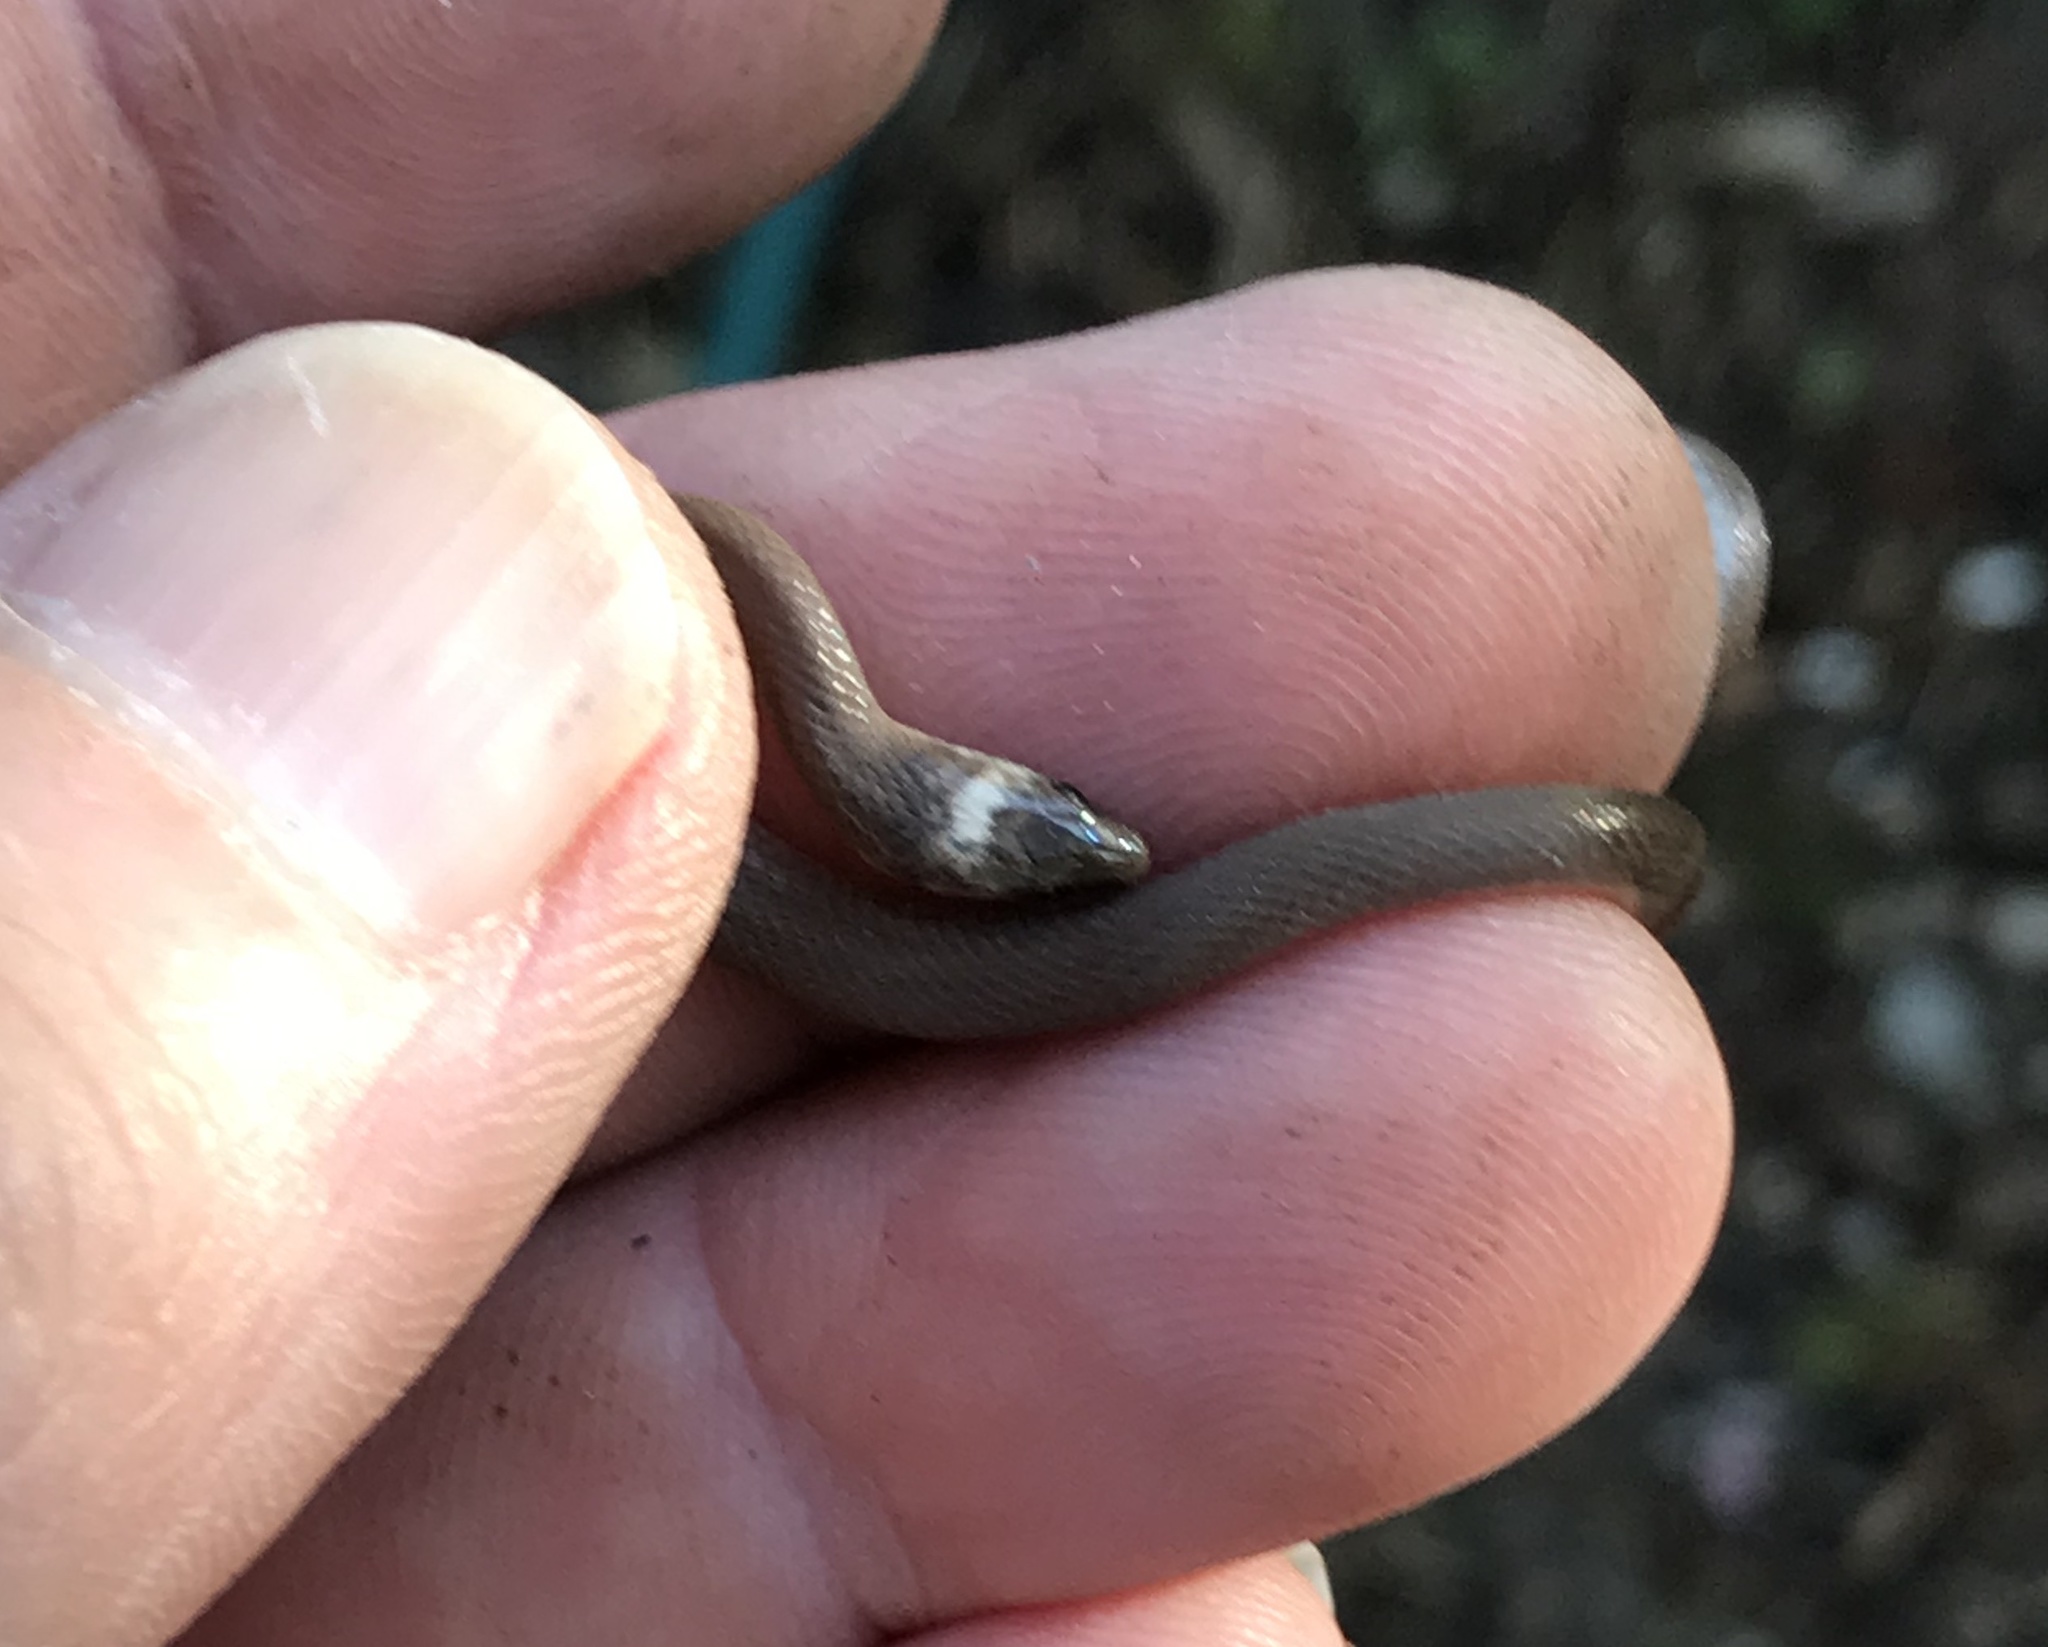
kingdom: Animalia
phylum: Chordata
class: Squamata
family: Colubridae
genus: Haldea
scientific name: Haldea striatula
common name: Rough earth snake
